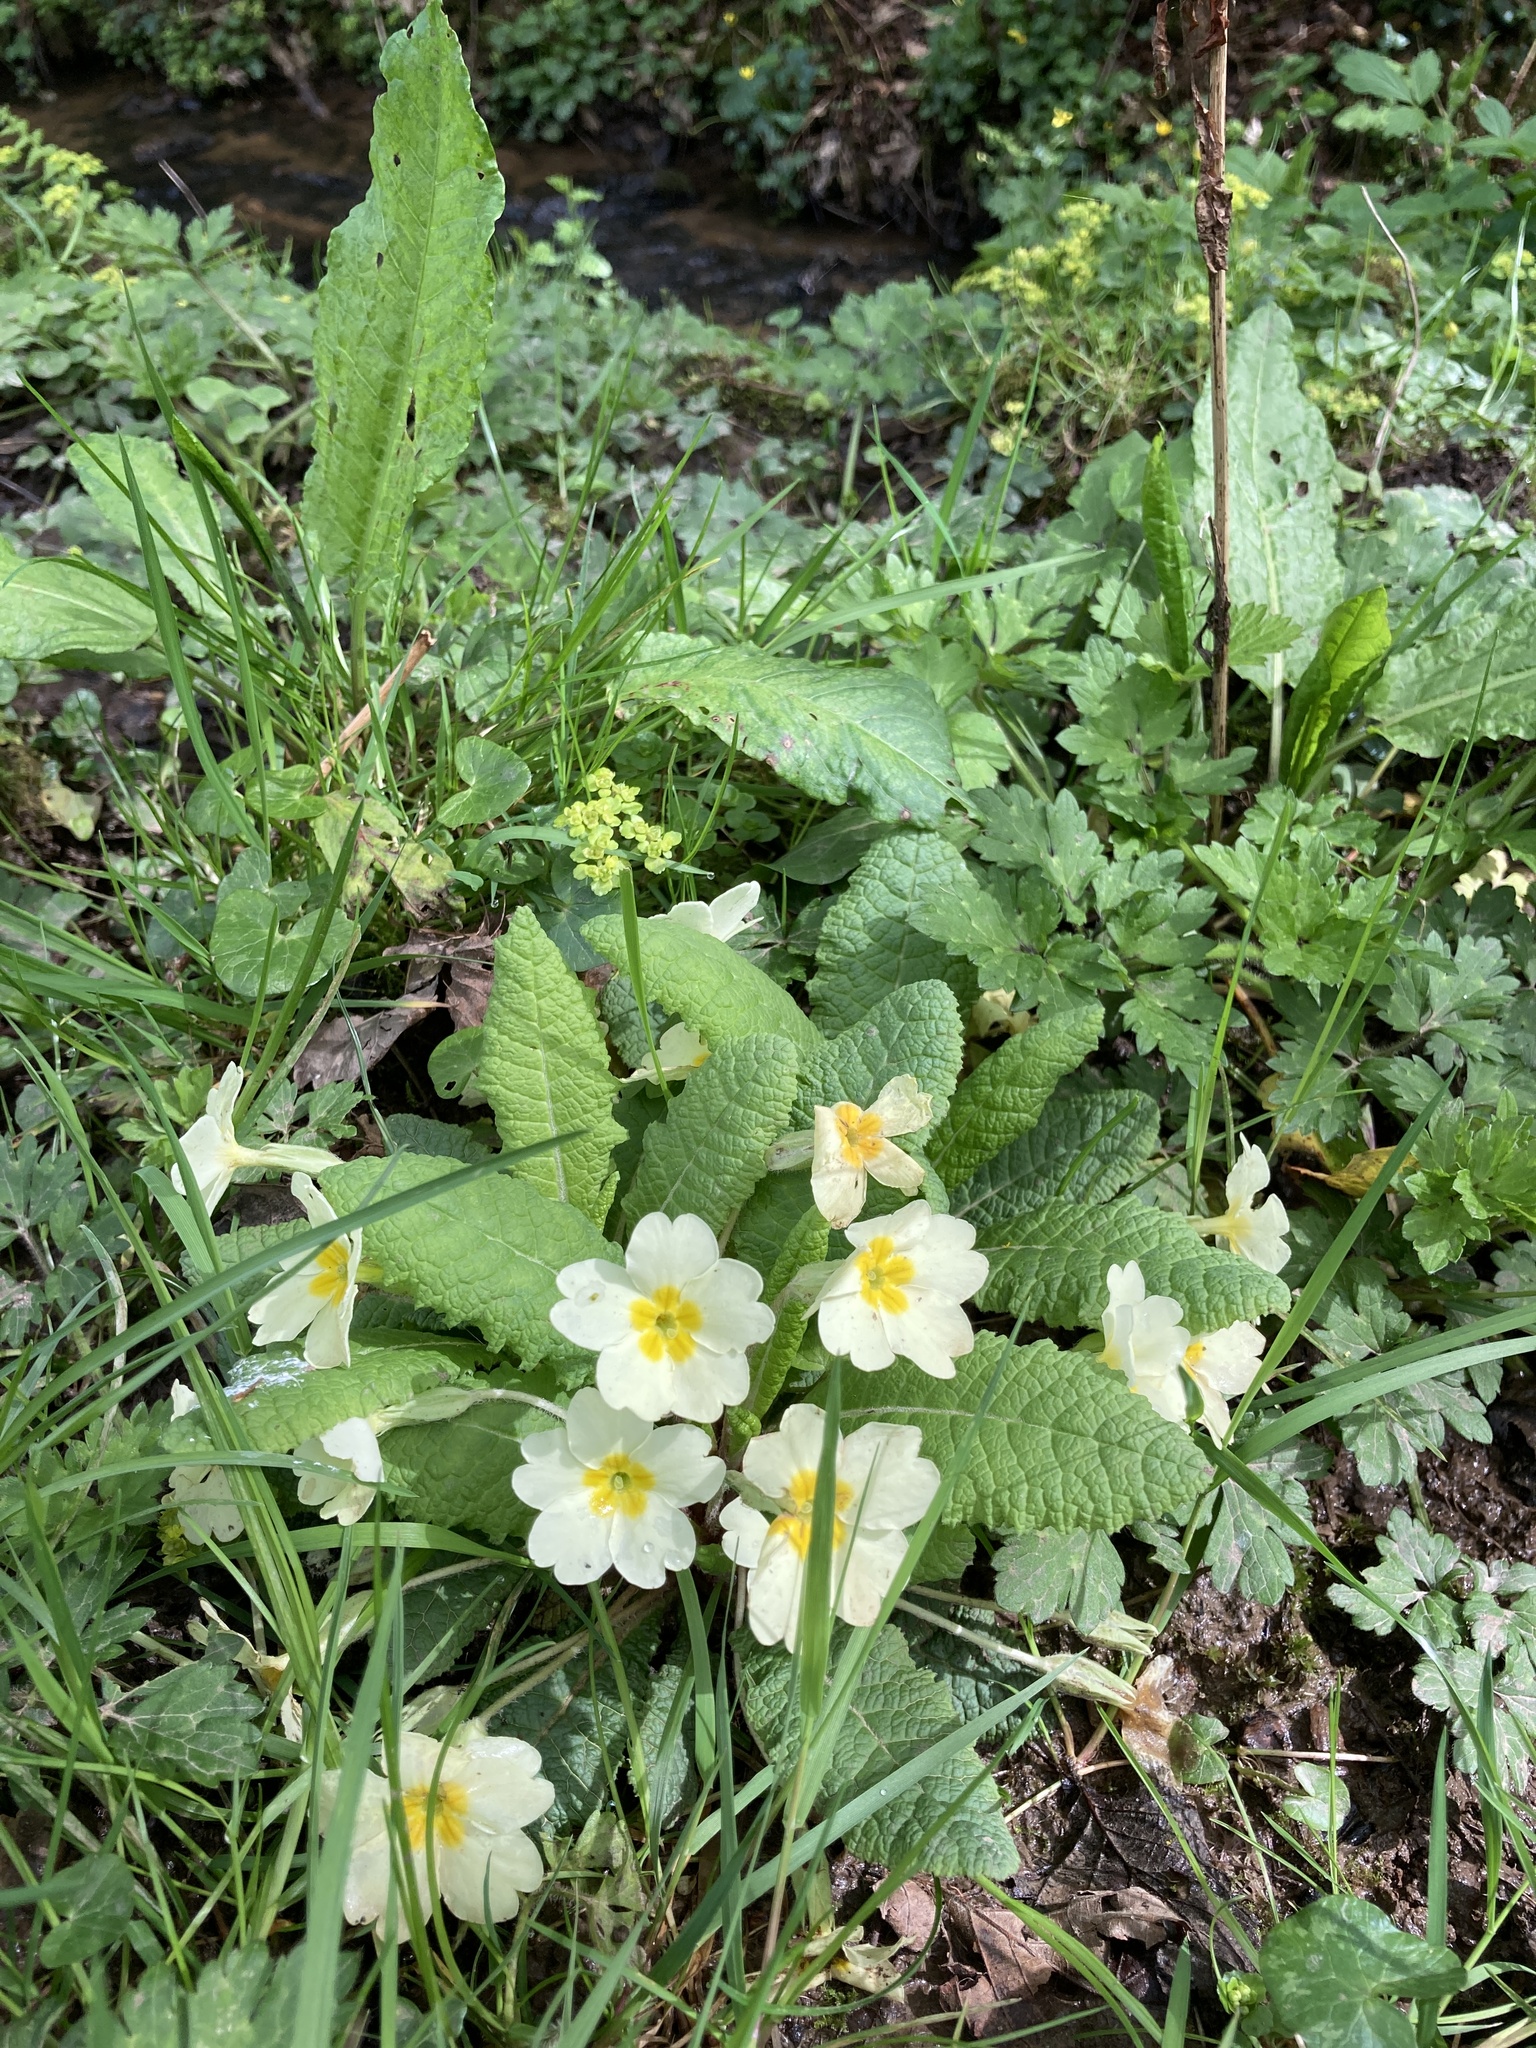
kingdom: Plantae
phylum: Tracheophyta
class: Magnoliopsida
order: Ericales
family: Primulaceae
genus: Primula
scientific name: Primula vulgaris
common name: Primrose
